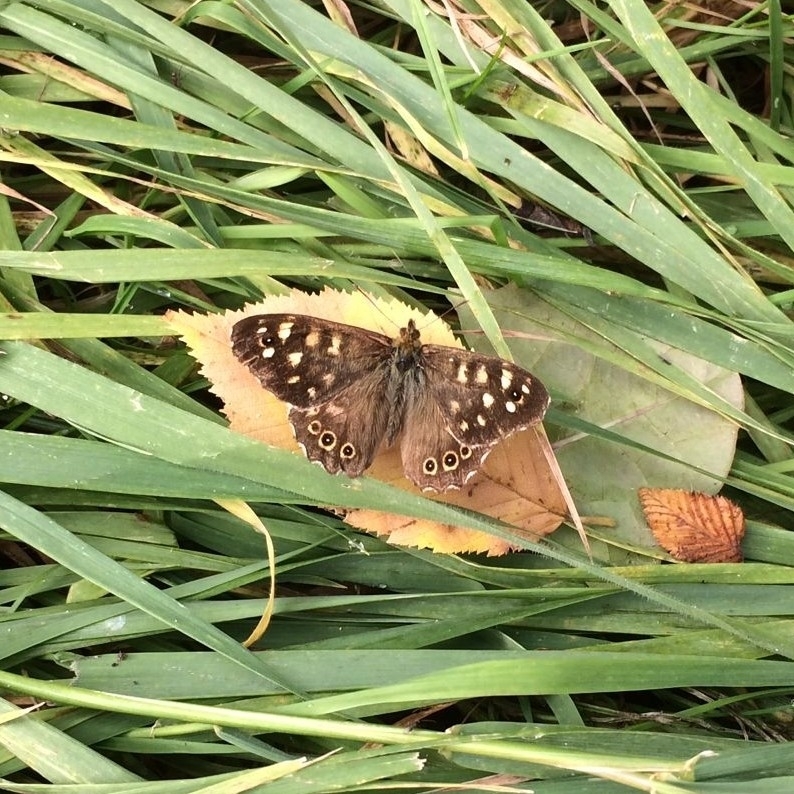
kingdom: Animalia
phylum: Arthropoda
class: Insecta
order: Lepidoptera
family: Nymphalidae
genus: Pararge
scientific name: Pararge aegeria
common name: Speckled wood
